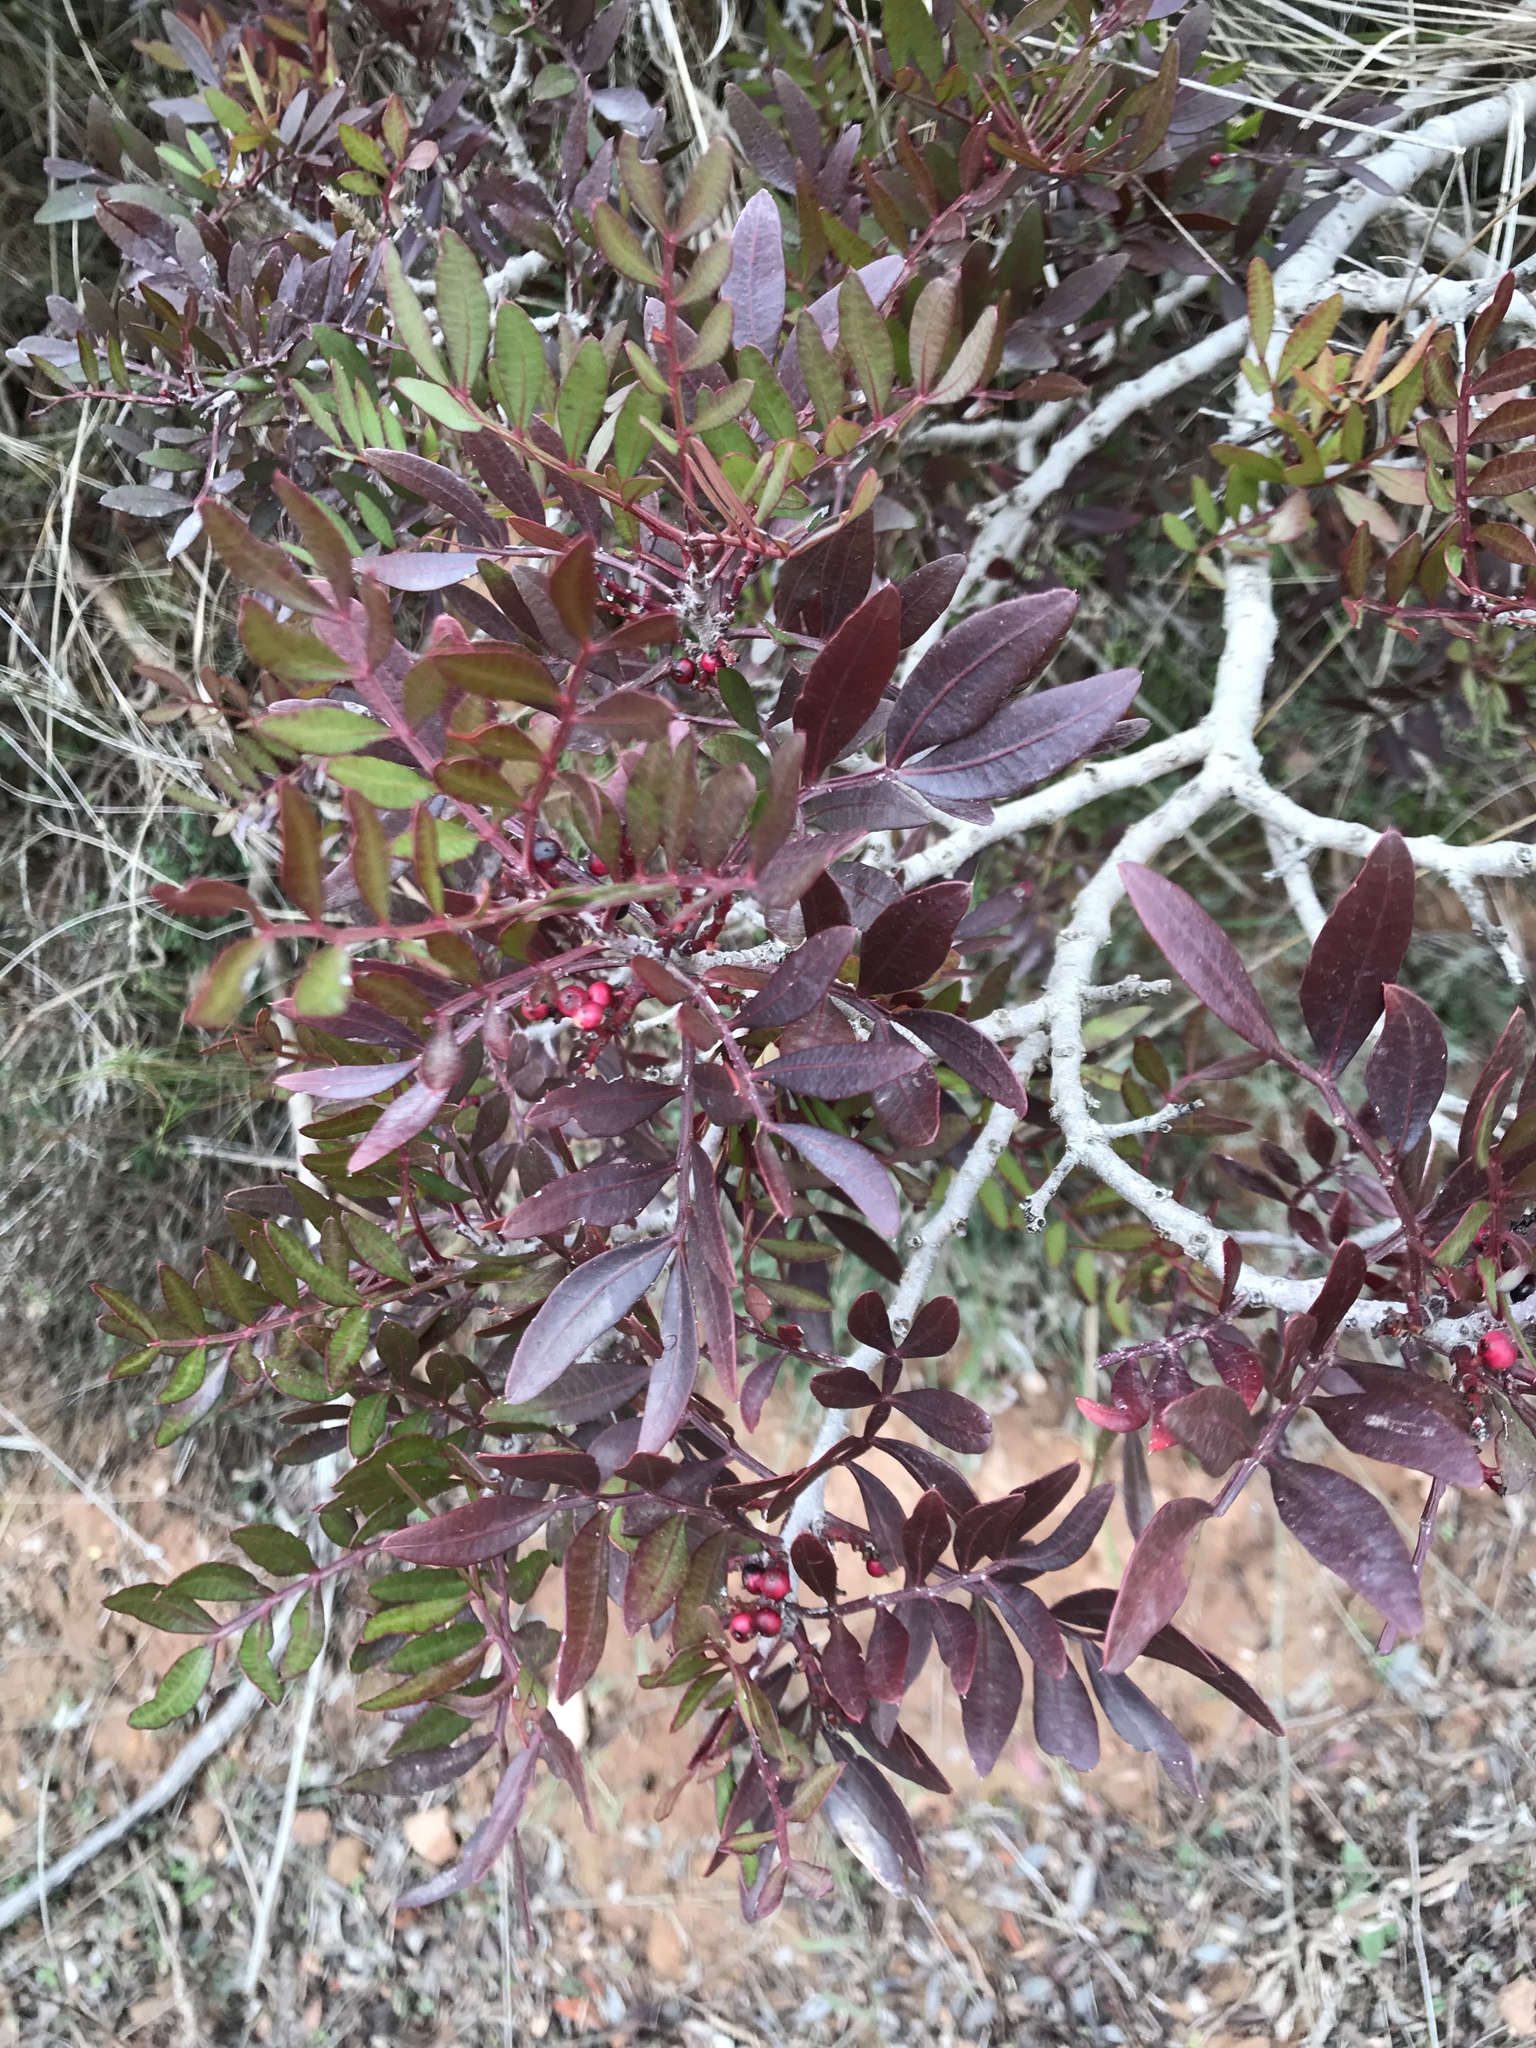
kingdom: Plantae
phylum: Tracheophyta
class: Magnoliopsida
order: Sapindales
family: Anacardiaceae
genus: Pistacia
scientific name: Pistacia lentiscus
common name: Lentisk
